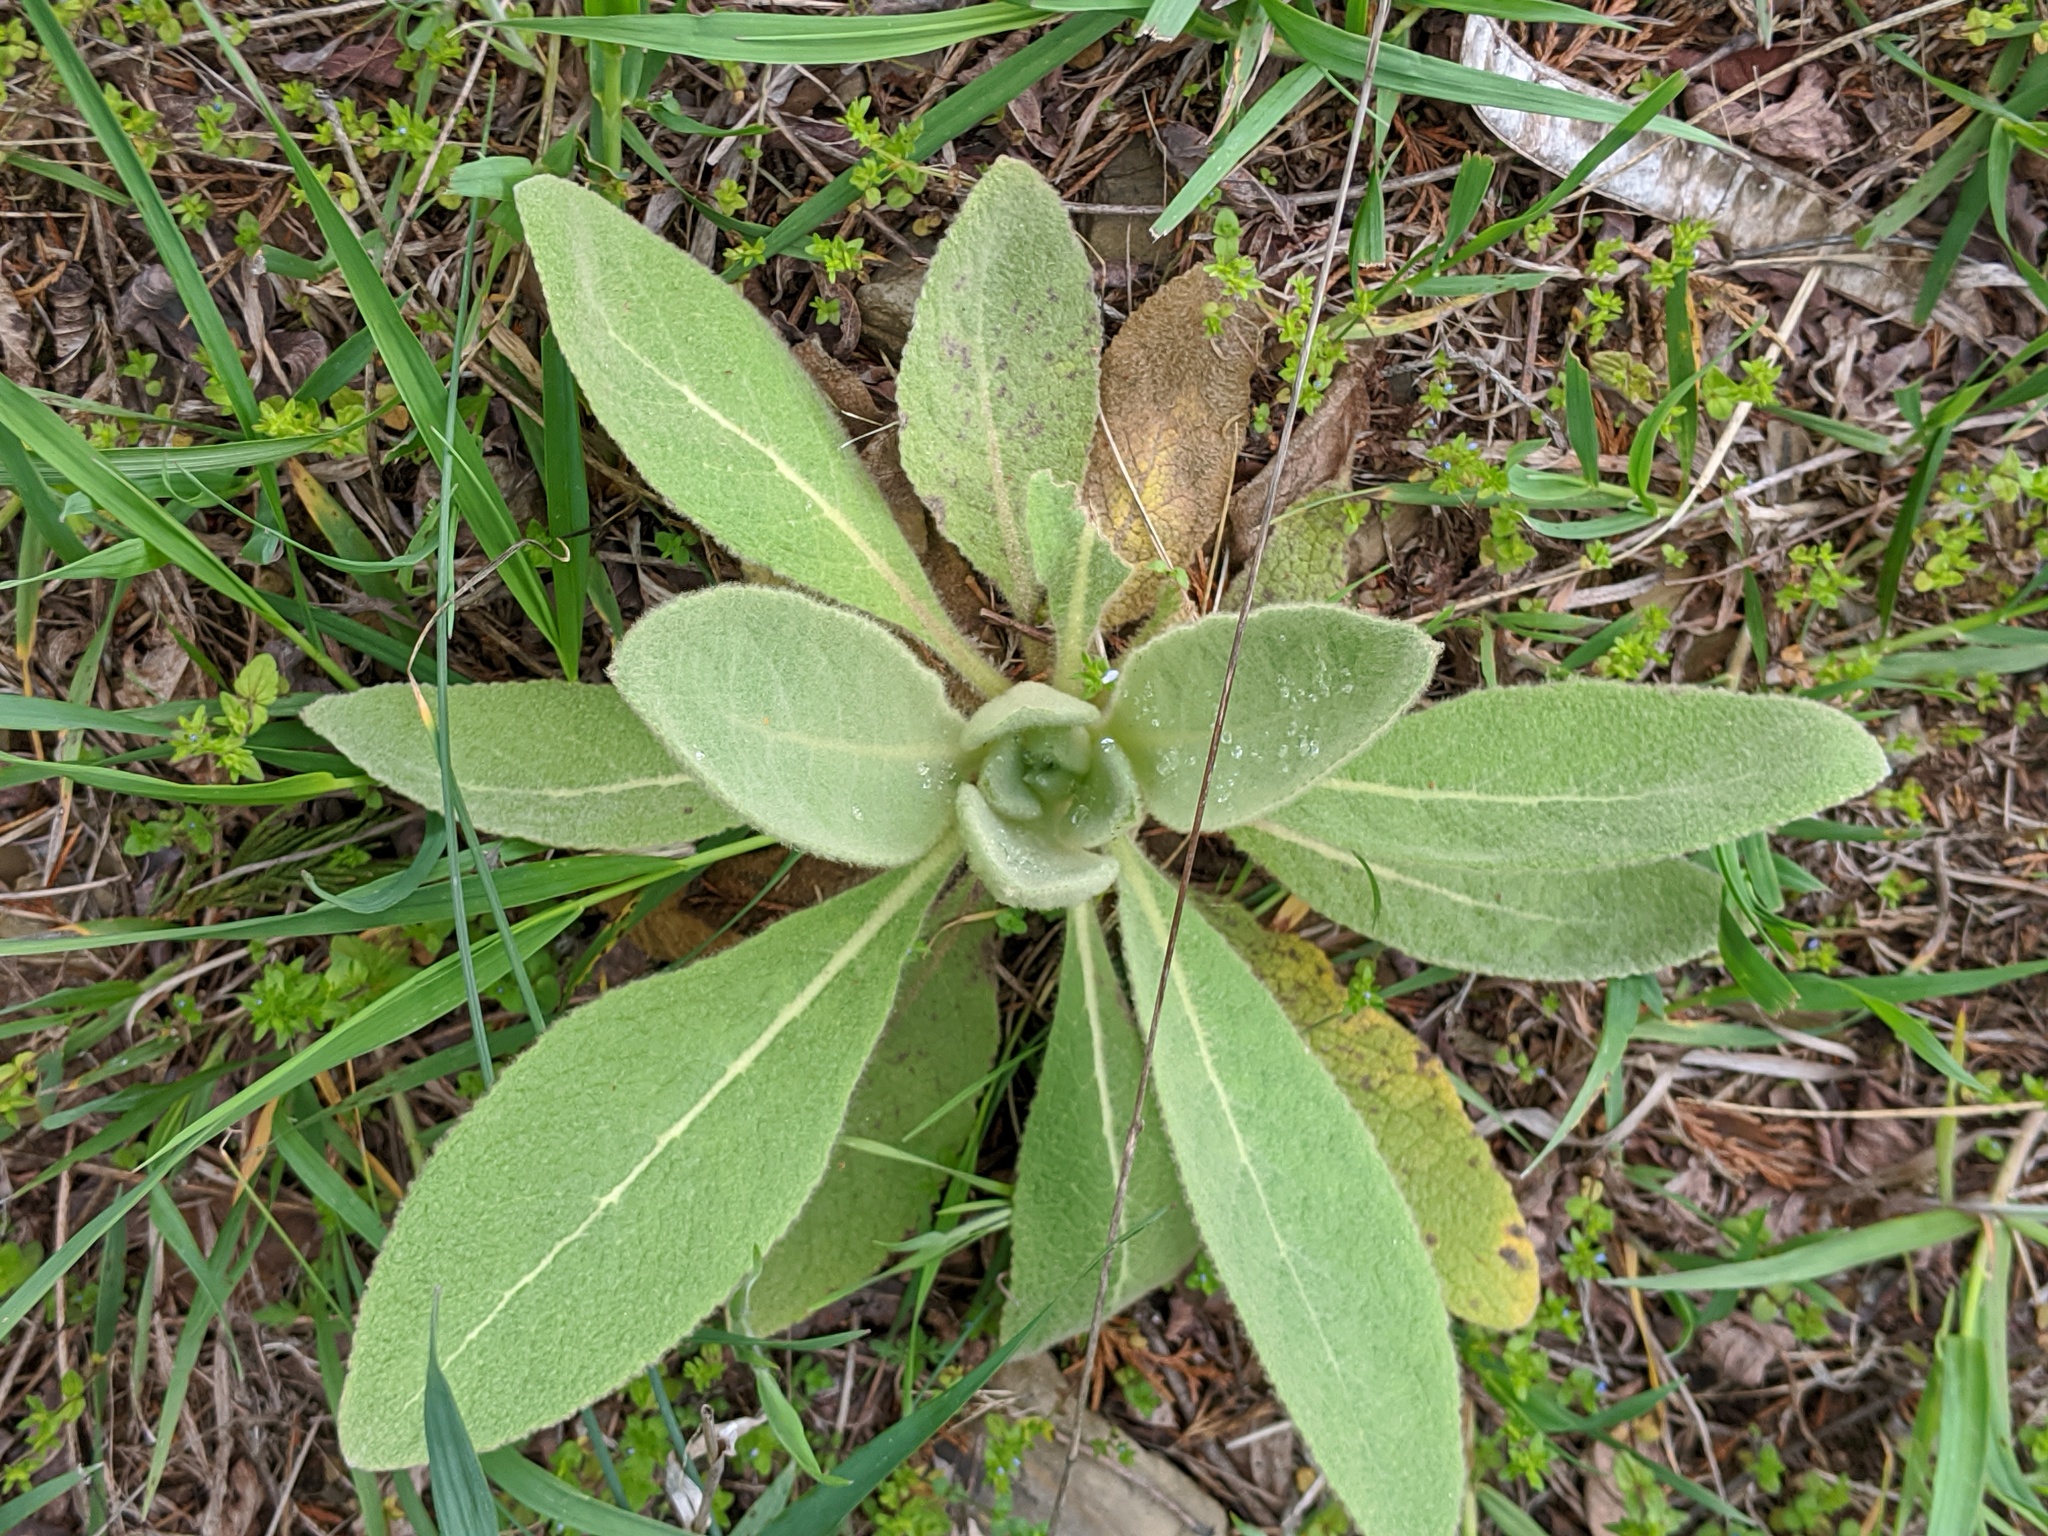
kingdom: Plantae
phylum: Tracheophyta
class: Magnoliopsida
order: Lamiales
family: Scrophulariaceae
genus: Verbascum
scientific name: Verbascum thapsus
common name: Common mullein
